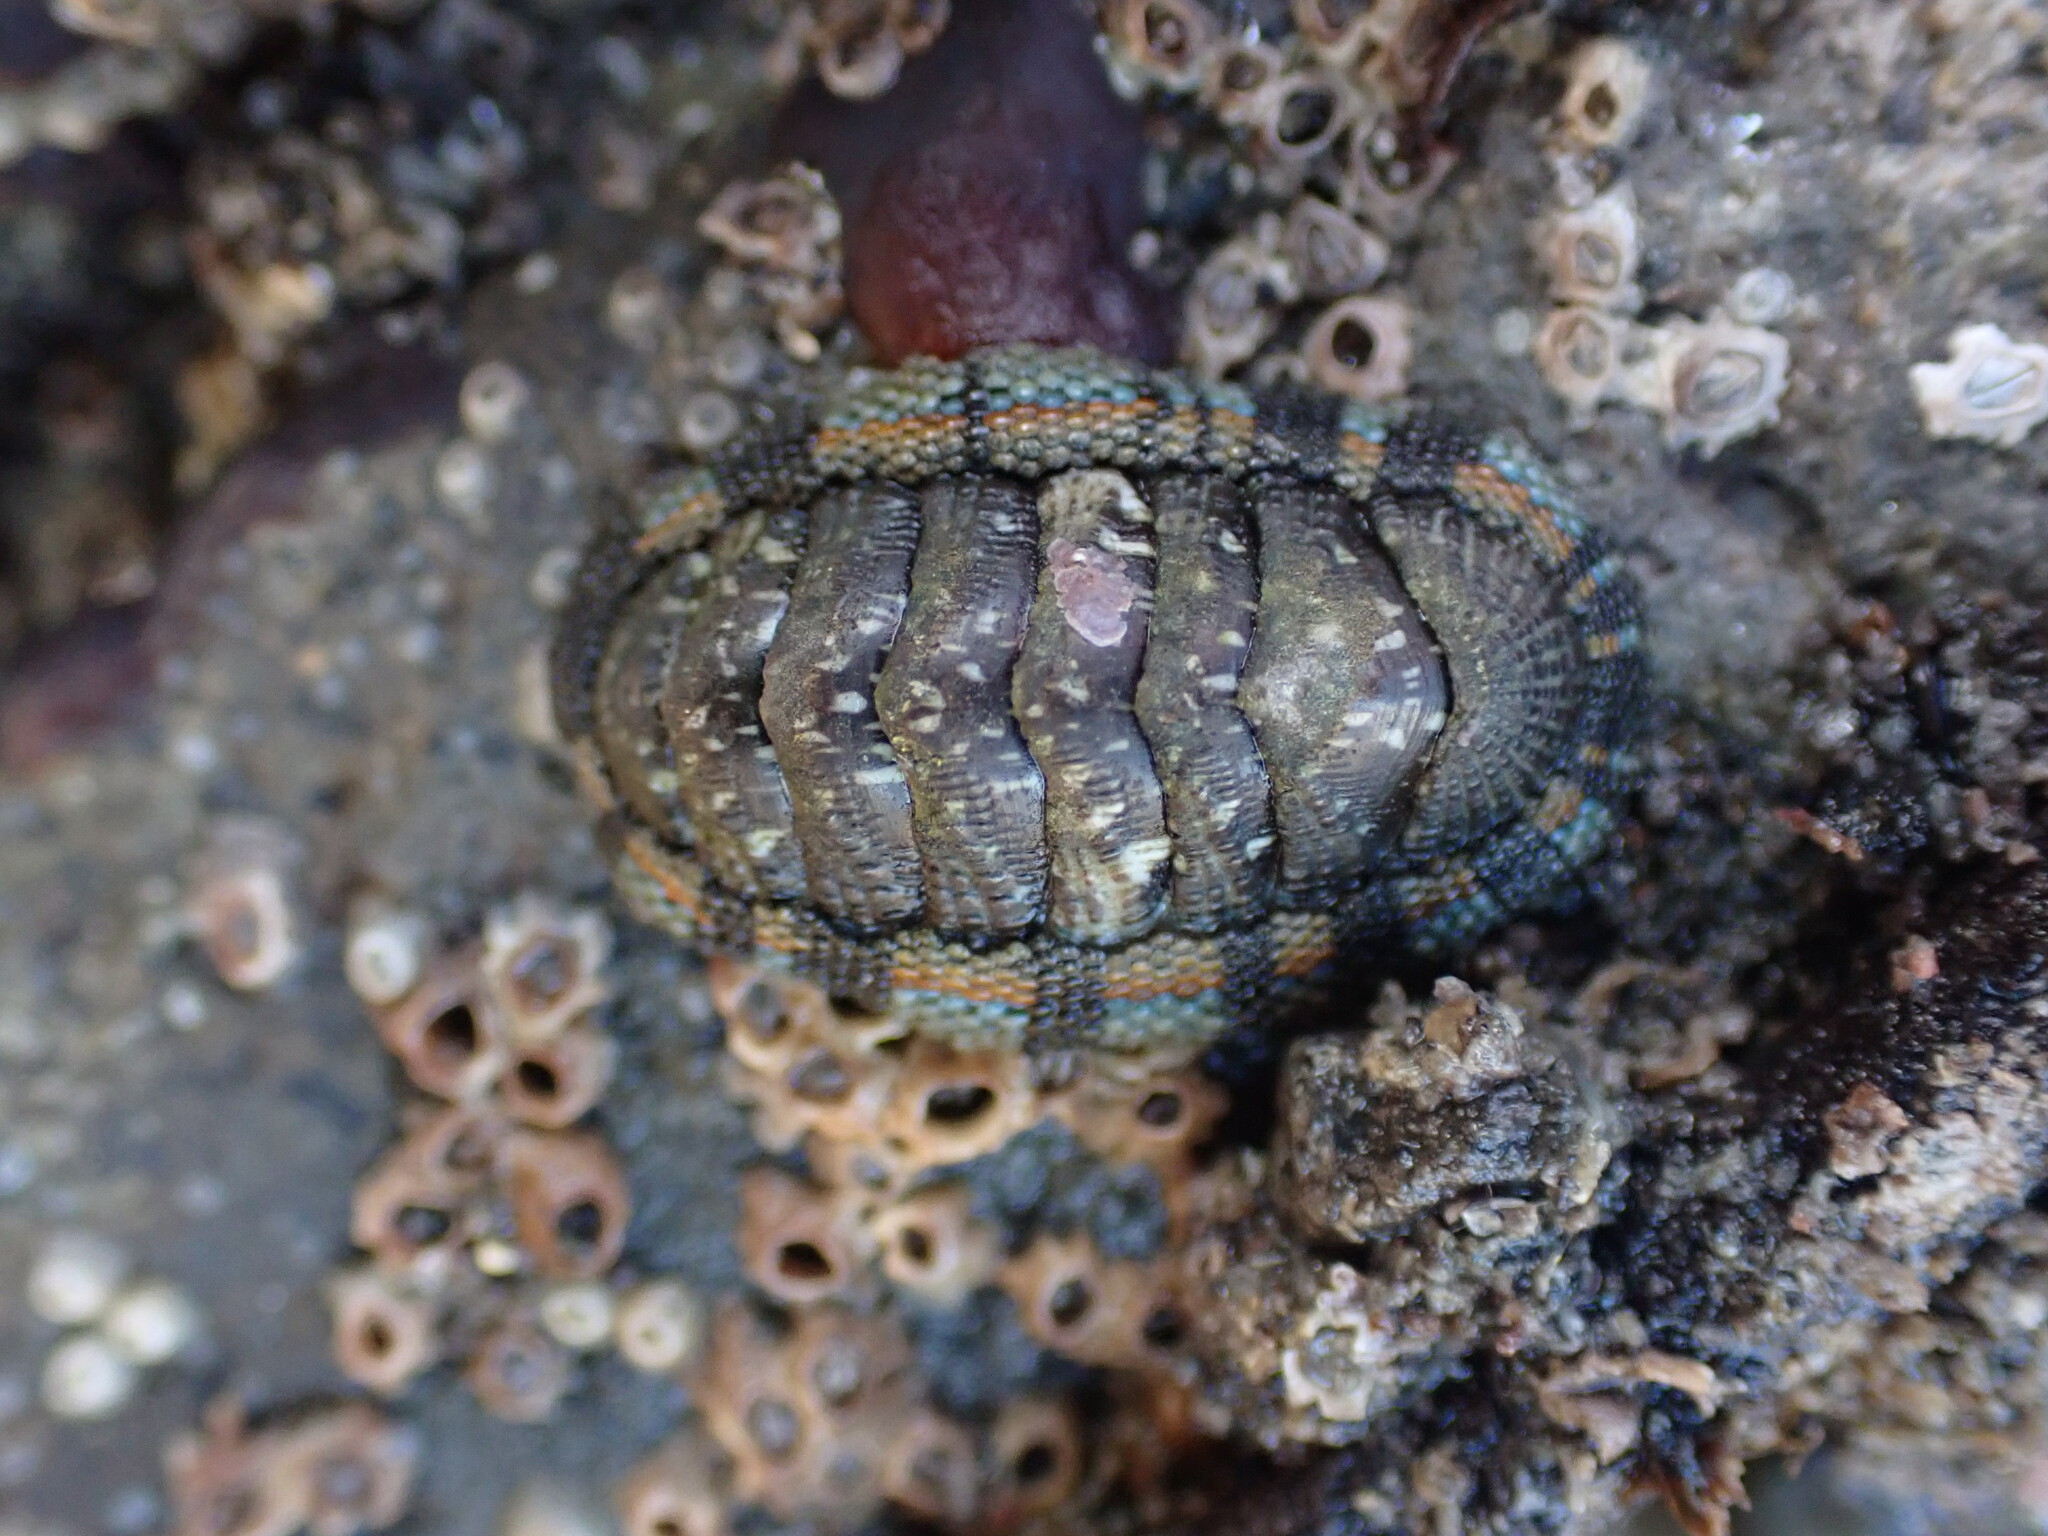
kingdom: Animalia
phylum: Mollusca
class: Polyplacophora
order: Chitonida
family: Chitonidae
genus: Sypharochiton
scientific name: Sypharochiton sinclairi
